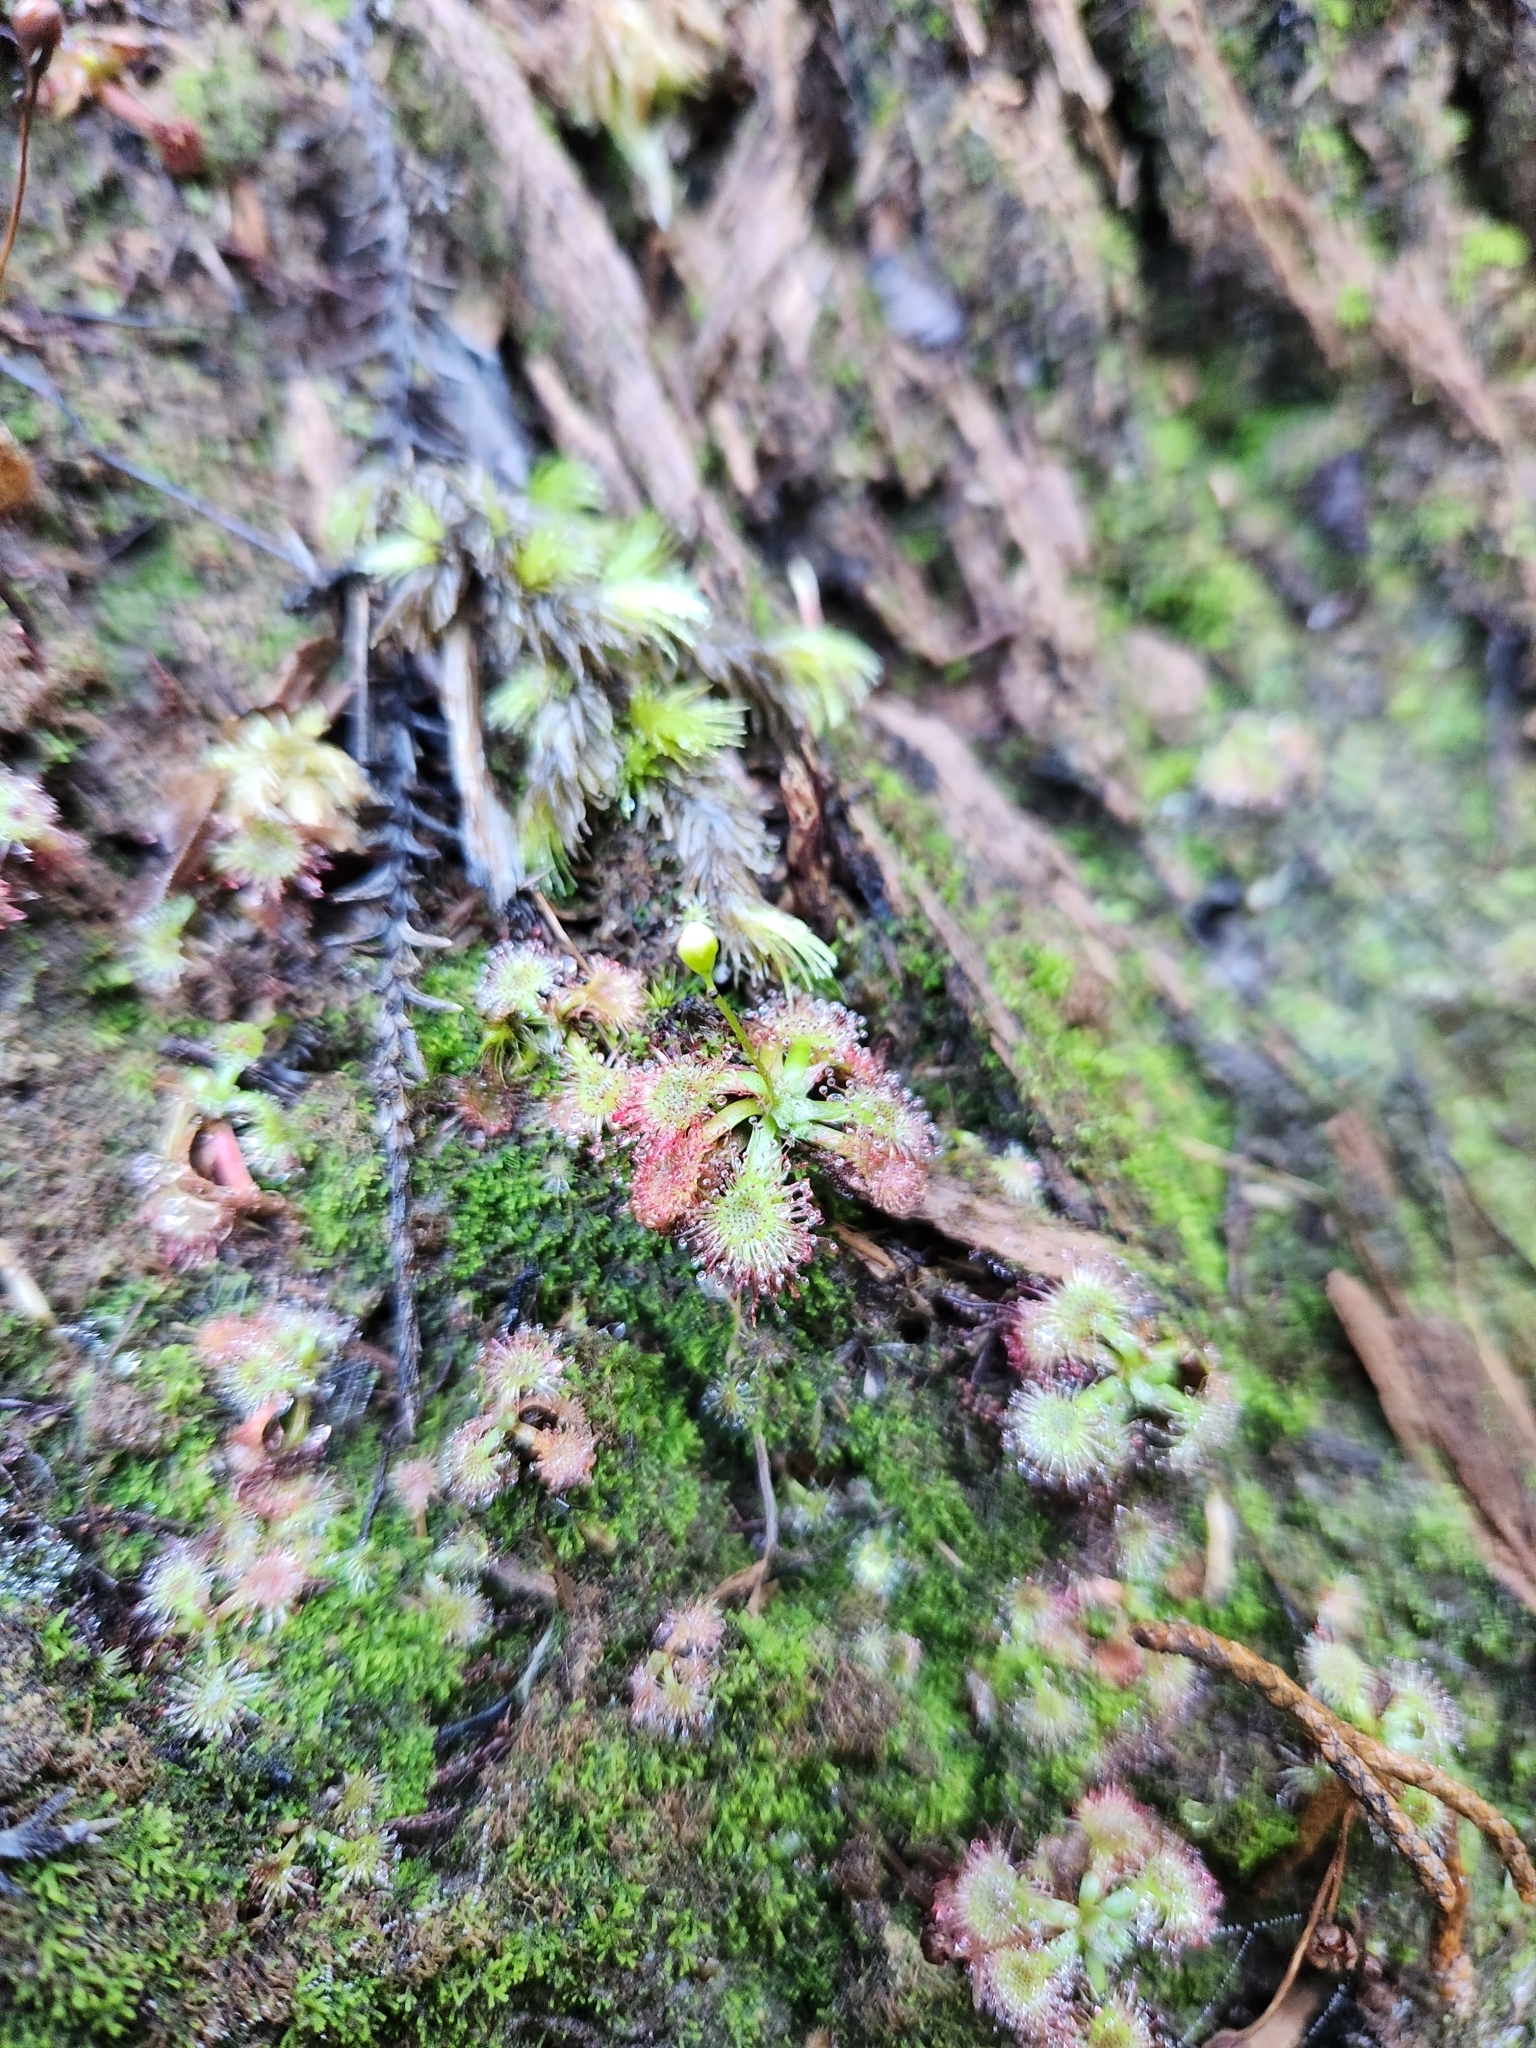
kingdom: Plantae
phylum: Tracheophyta
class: Magnoliopsida
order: Caryophyllales
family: Droseraceae
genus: Drosera
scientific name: Drosera spatulata
